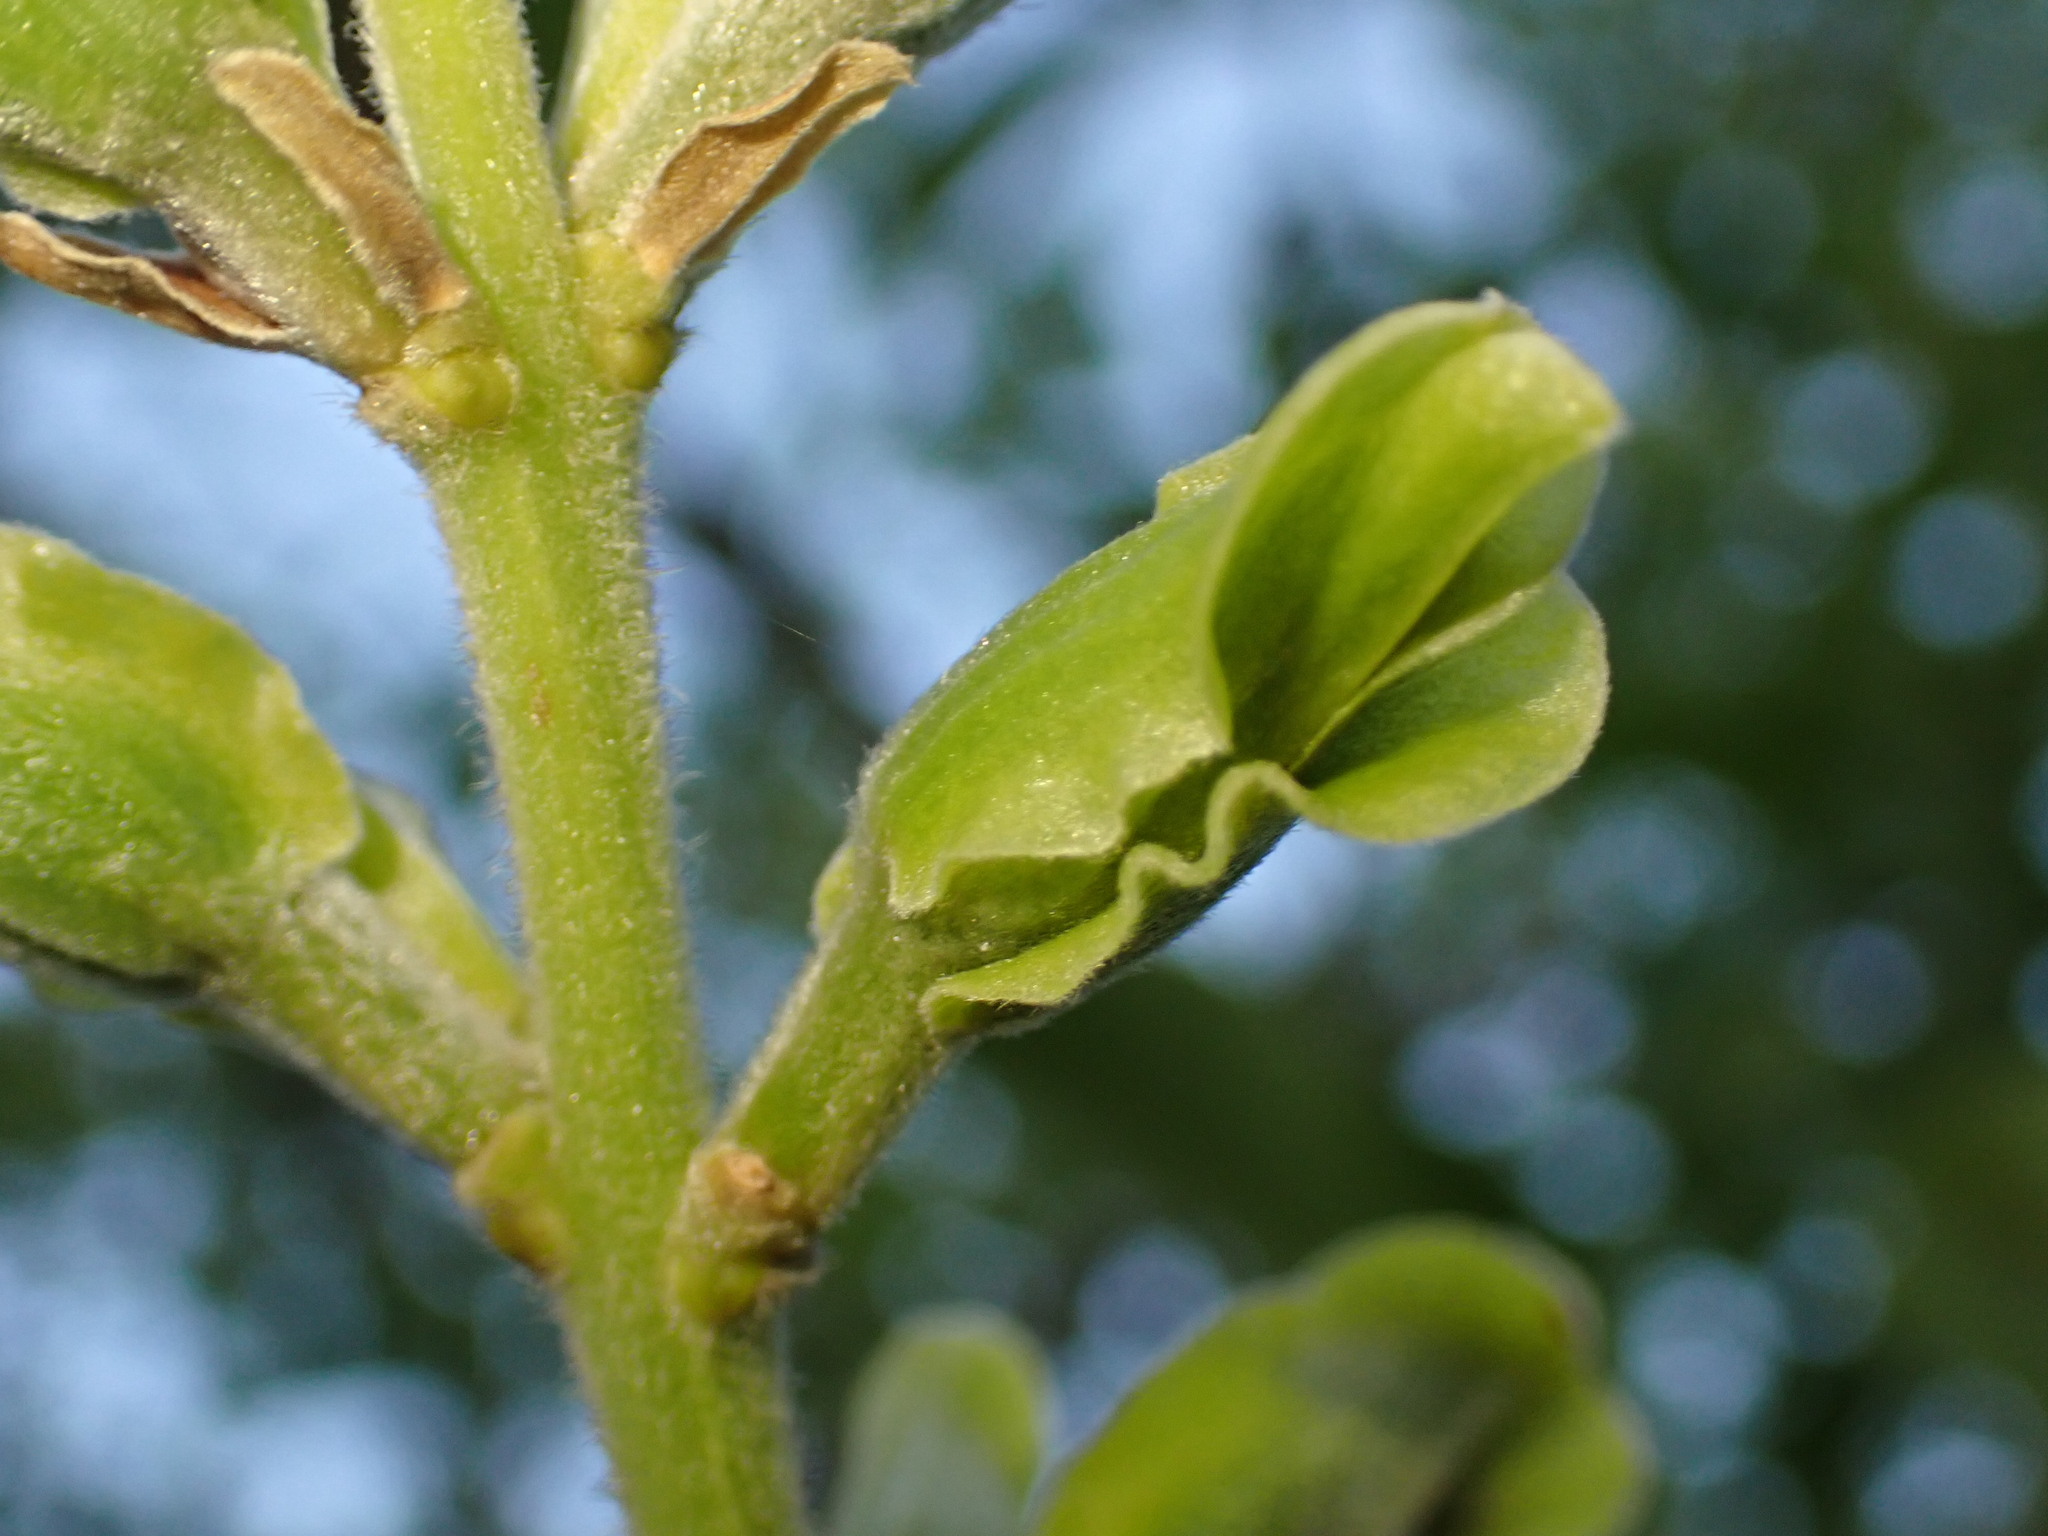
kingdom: Plantae
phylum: Tracheophyta
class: Magnoliopsida
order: Myrtales
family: Vochysiaceae
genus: Qualea
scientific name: Qualea grandiflora
